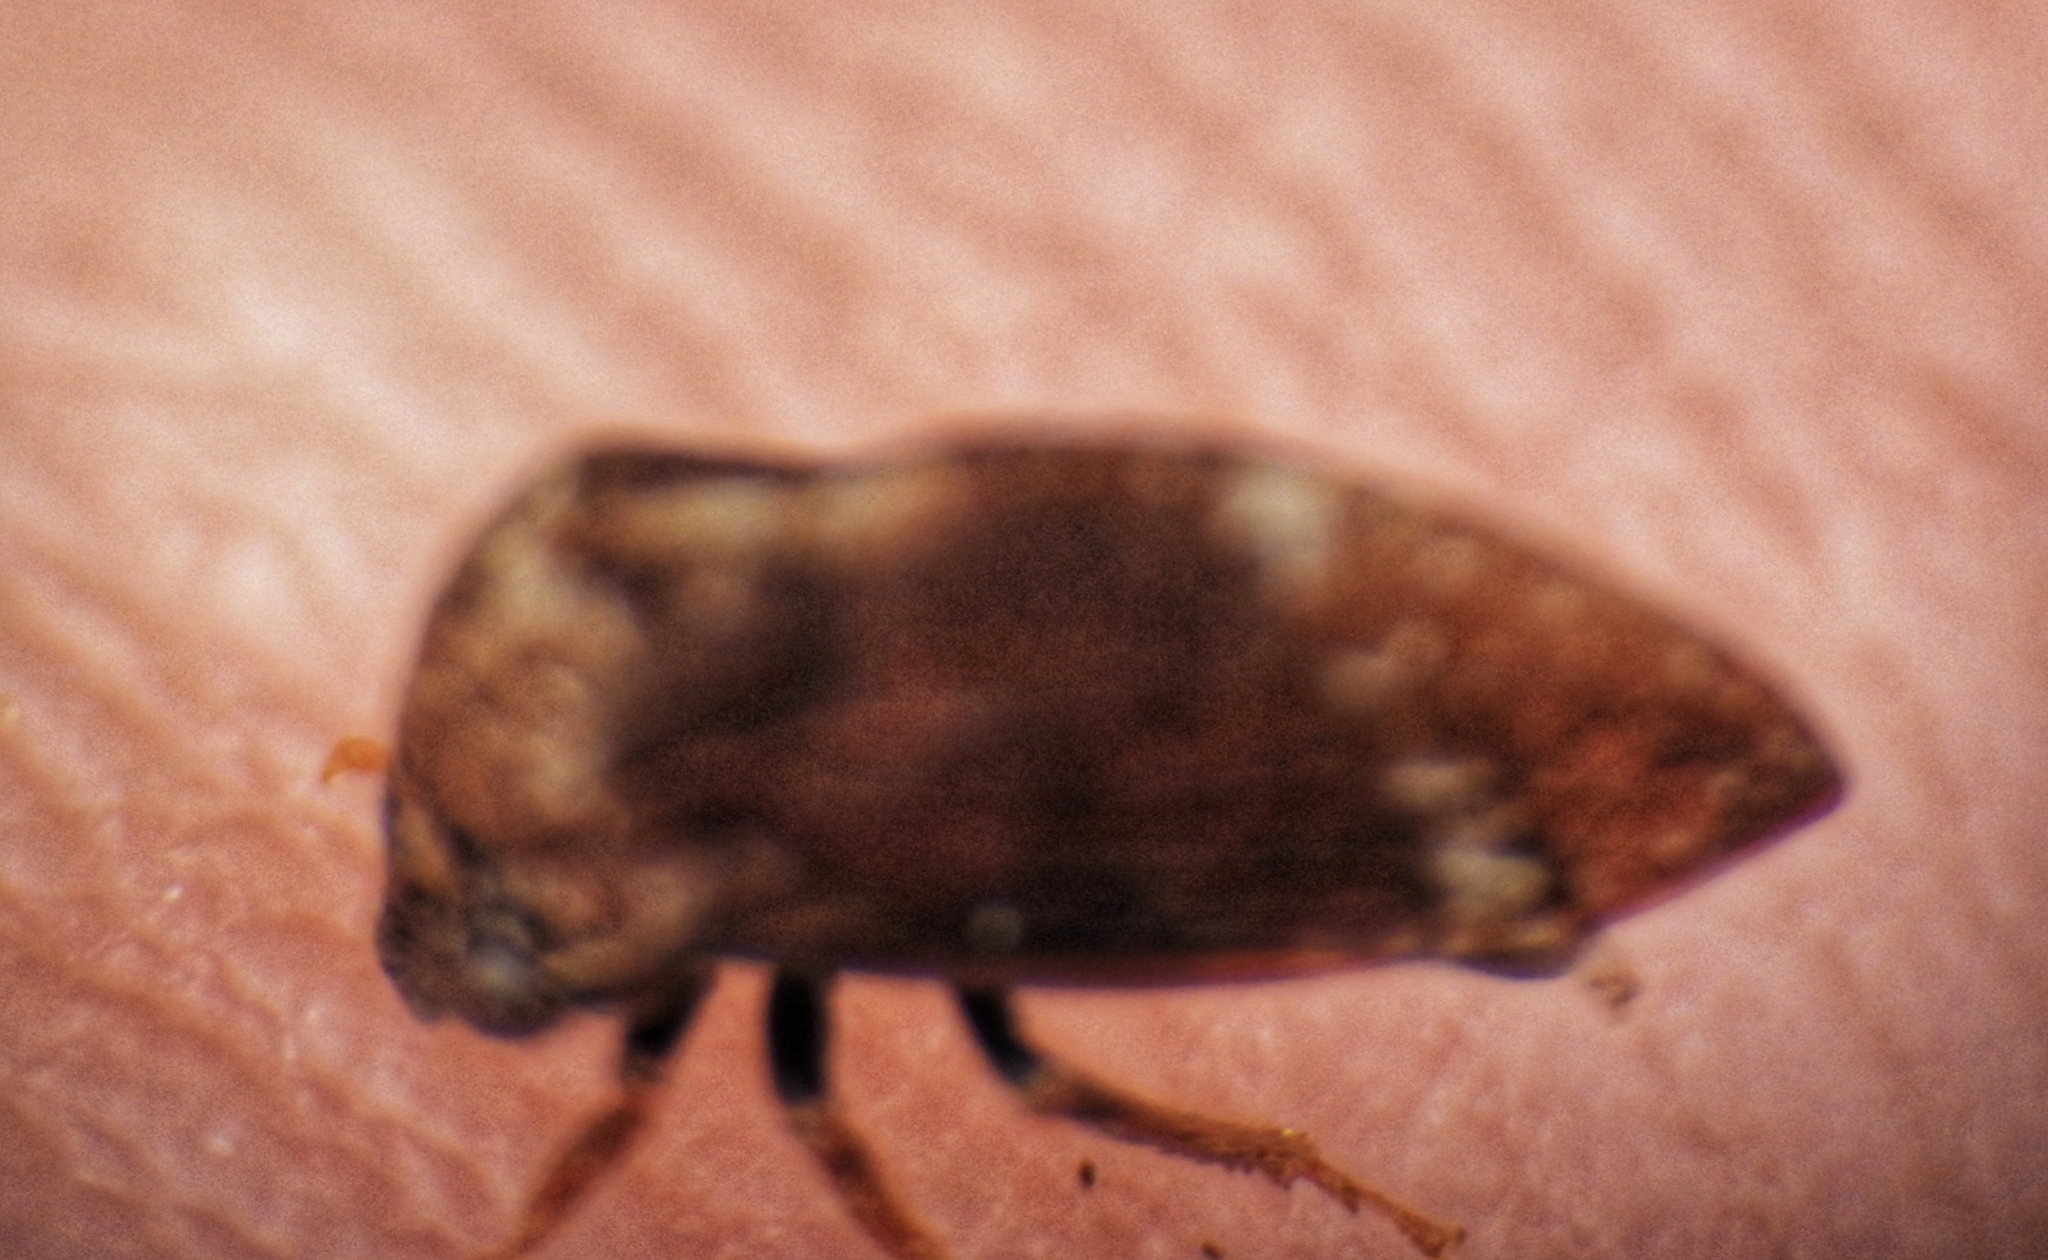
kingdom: Animalia
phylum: Arthropoda
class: Insecta
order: Hemiptera
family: Membracidae
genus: Publilia
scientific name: Publilia concava
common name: Aster treehopper
